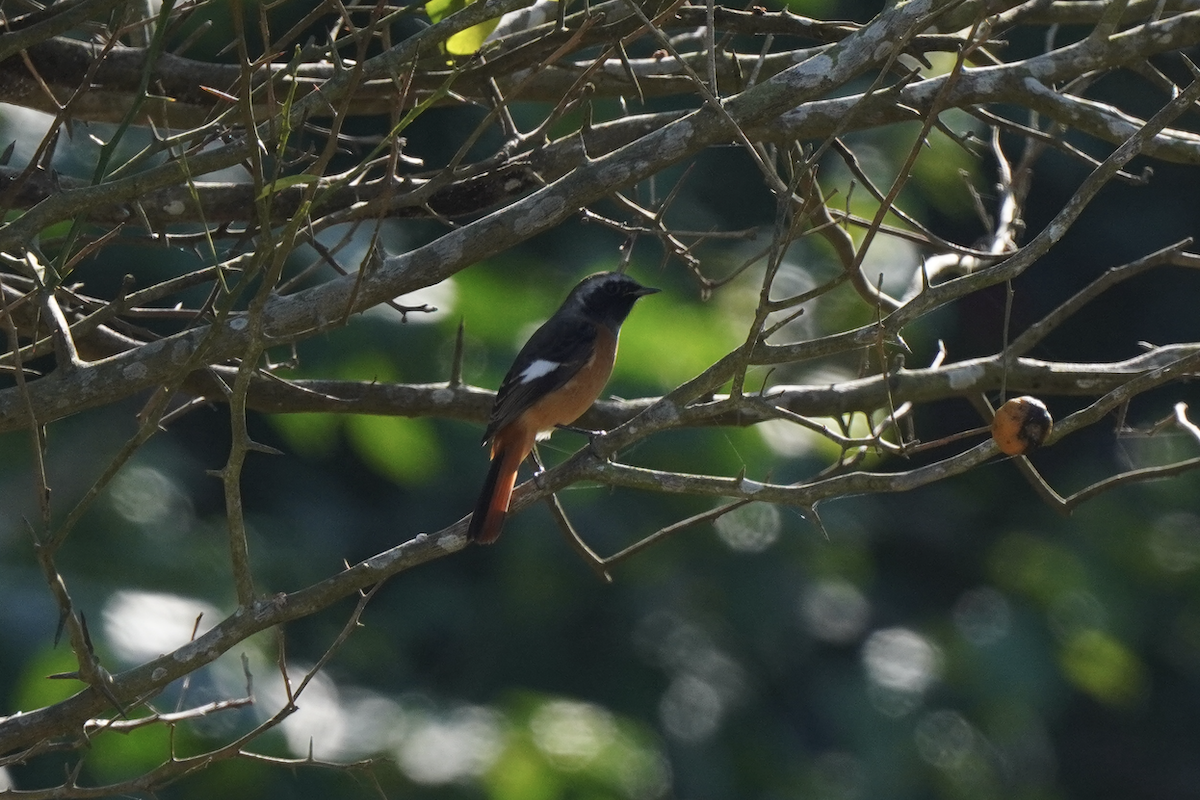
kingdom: Animalia
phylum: Chordata
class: Aves
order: Passeriformes
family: Muscicapidae
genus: Phoenicurus
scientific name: Phoenicurus auroreus
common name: Daurian redstart
